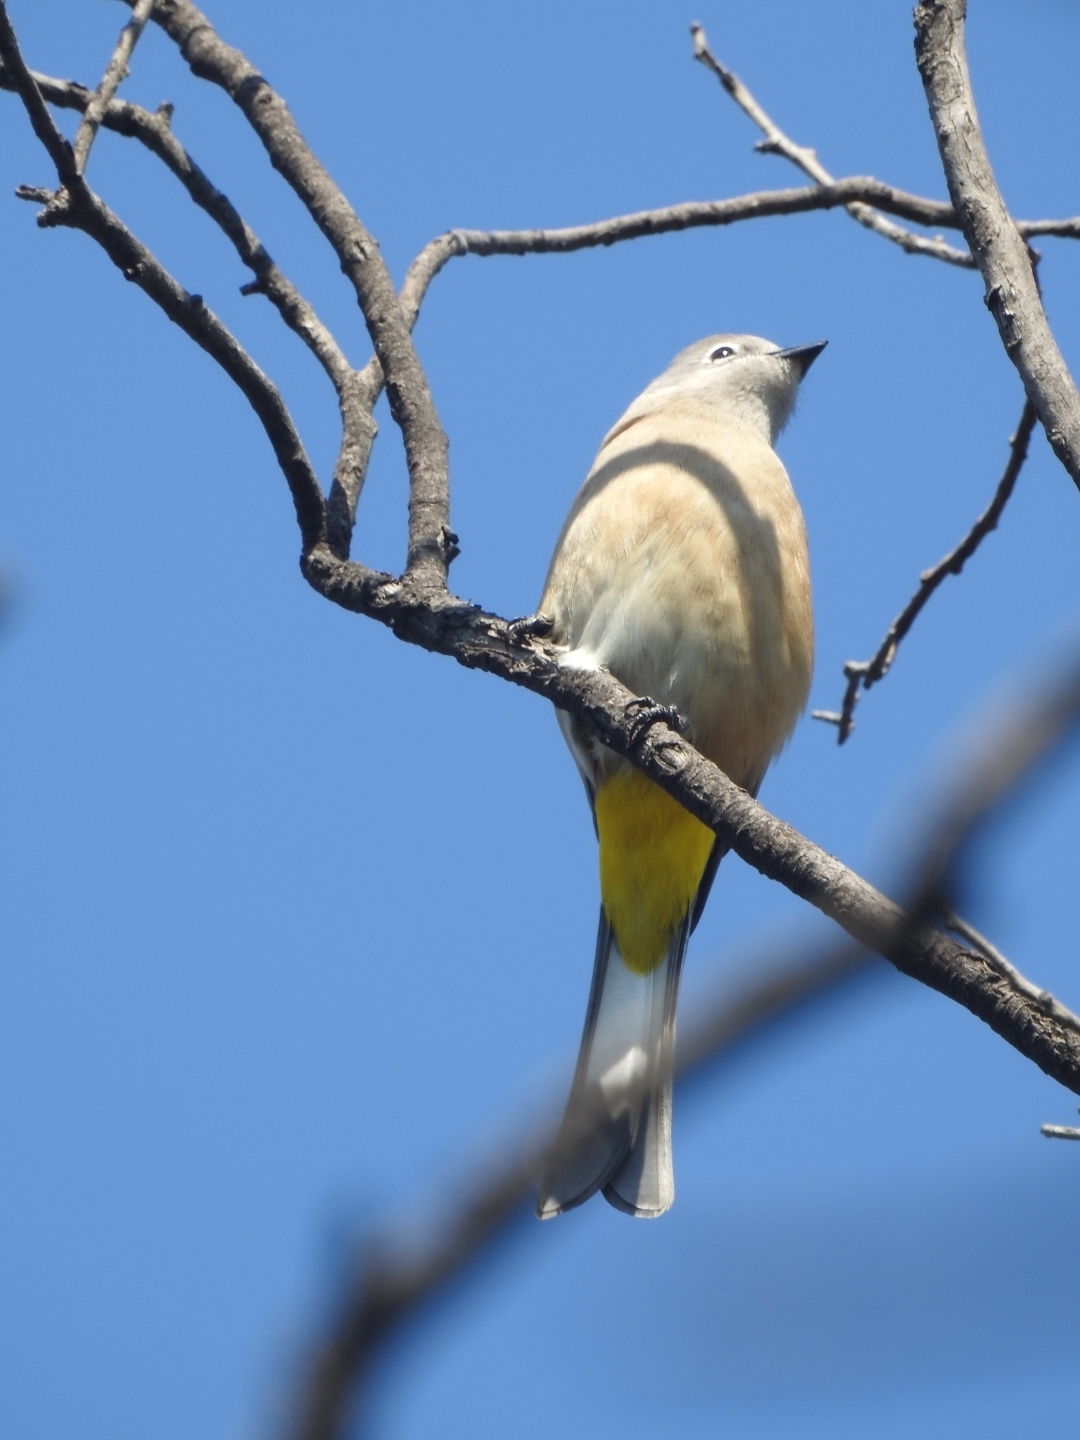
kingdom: Animalia
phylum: Chordata
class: Aves
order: Passeriformes
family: Ptilogonatidae
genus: Ptilogonys
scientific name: Ptilogonys cinereus
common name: Gray silky-flycatcher
